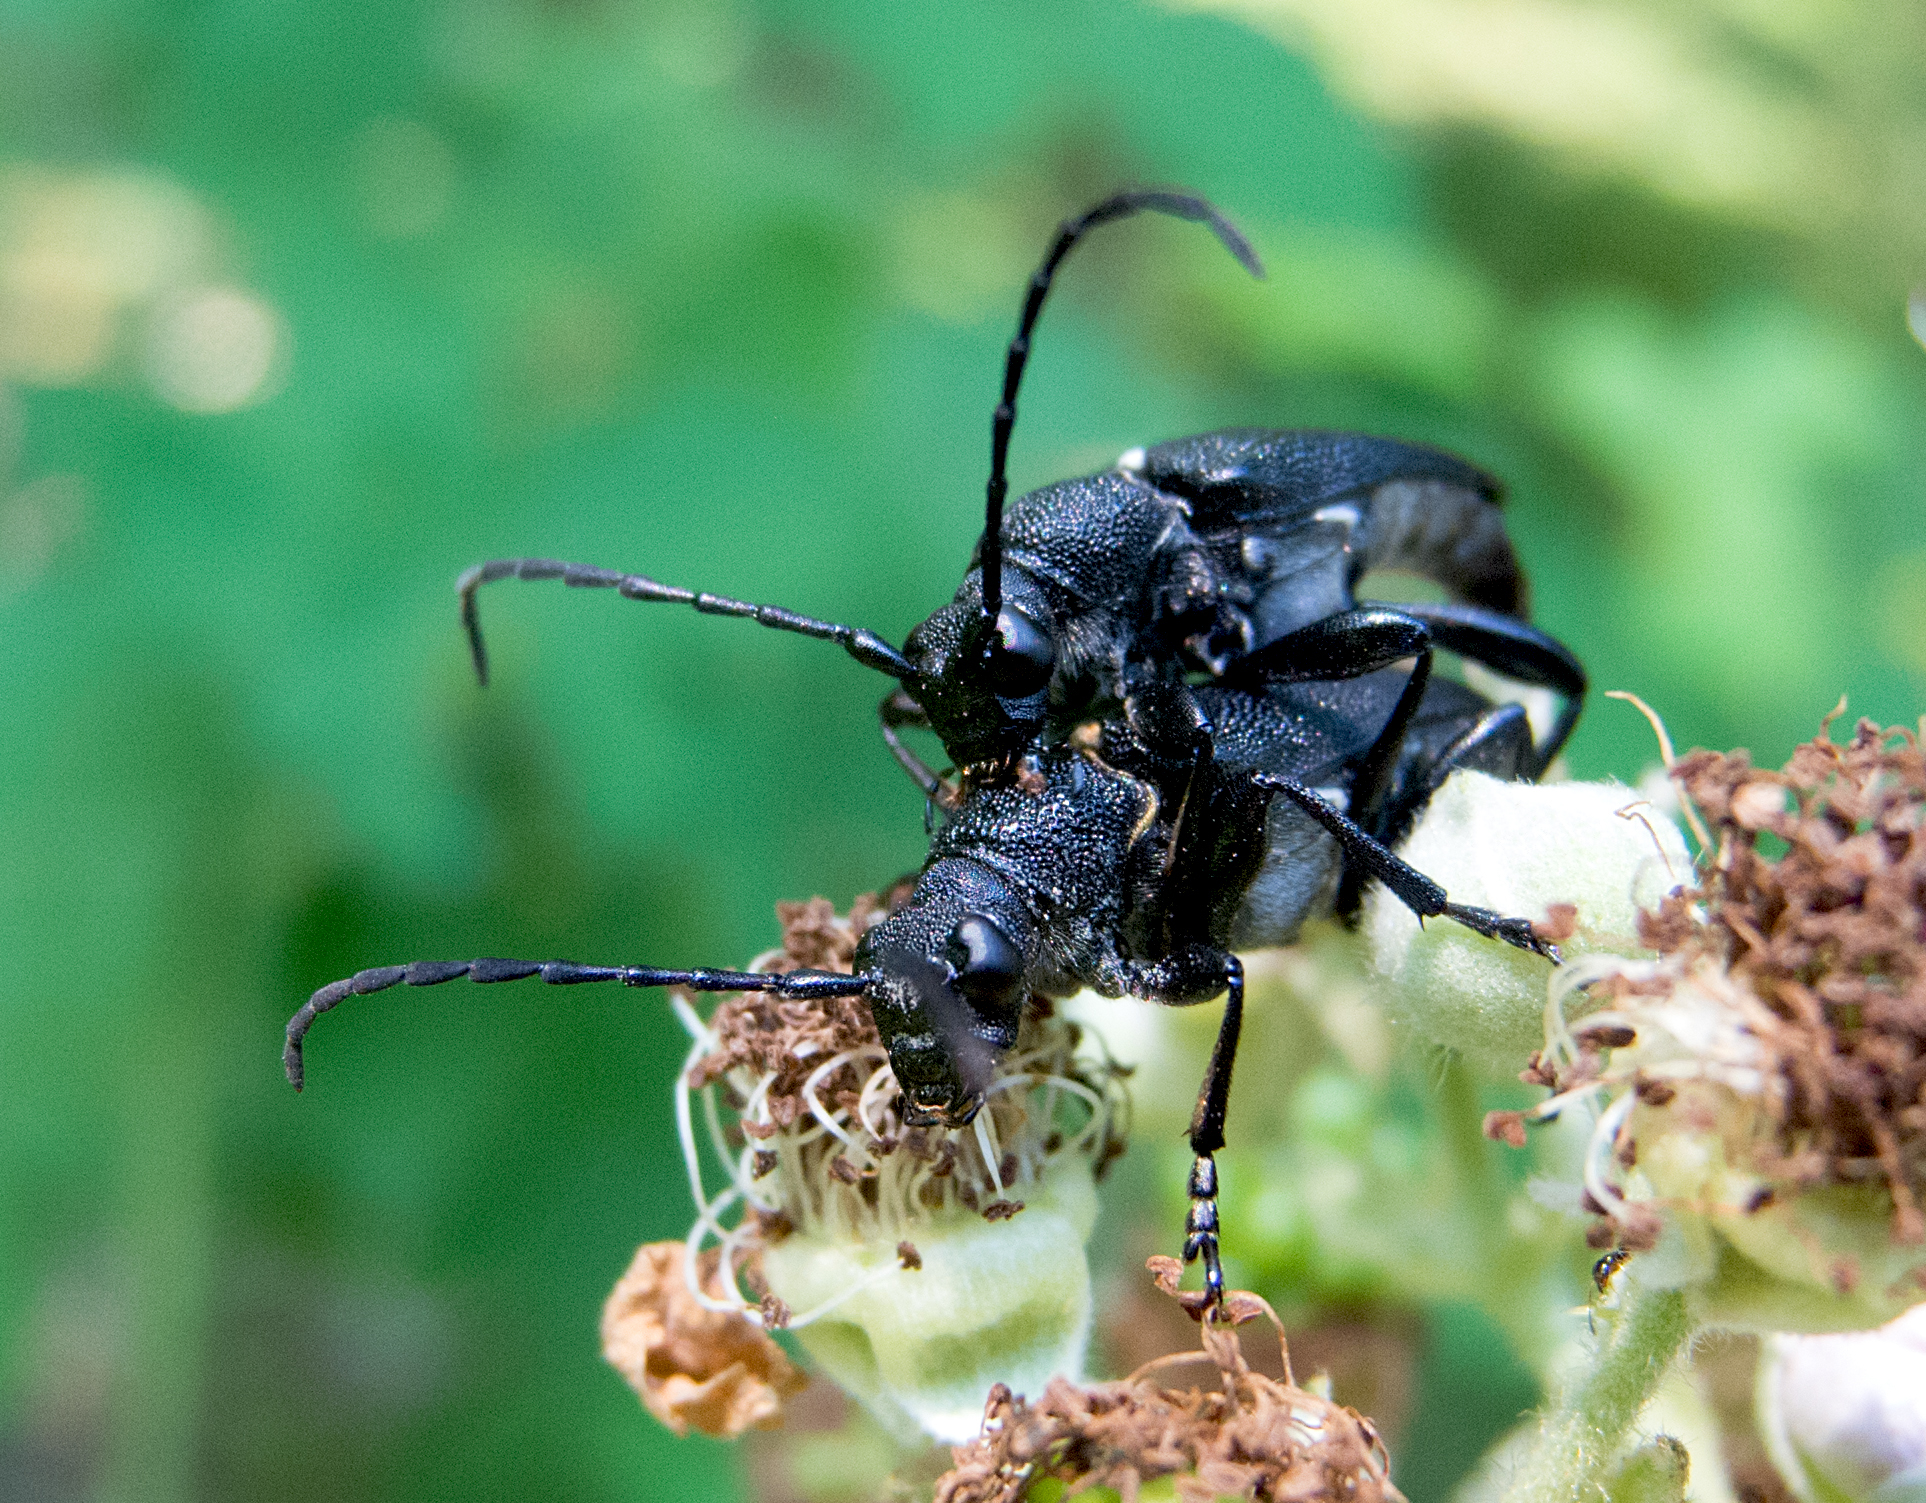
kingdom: Animalia
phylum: Arthropoda
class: Insecta
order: Coleoptera
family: Cerambycidae
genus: Stictoleptura
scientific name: Stictoleptura scutellata
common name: Large black longhorn beetle
